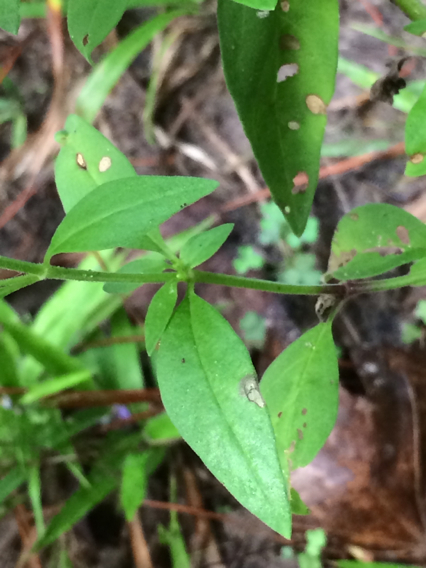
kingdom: Plantae
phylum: Tracheophyta
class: Magnoliopsida
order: Lamiales
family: Lamiaceae
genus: Trichostema
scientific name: Trichostema dichotomum
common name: Bastard pennyroyal
